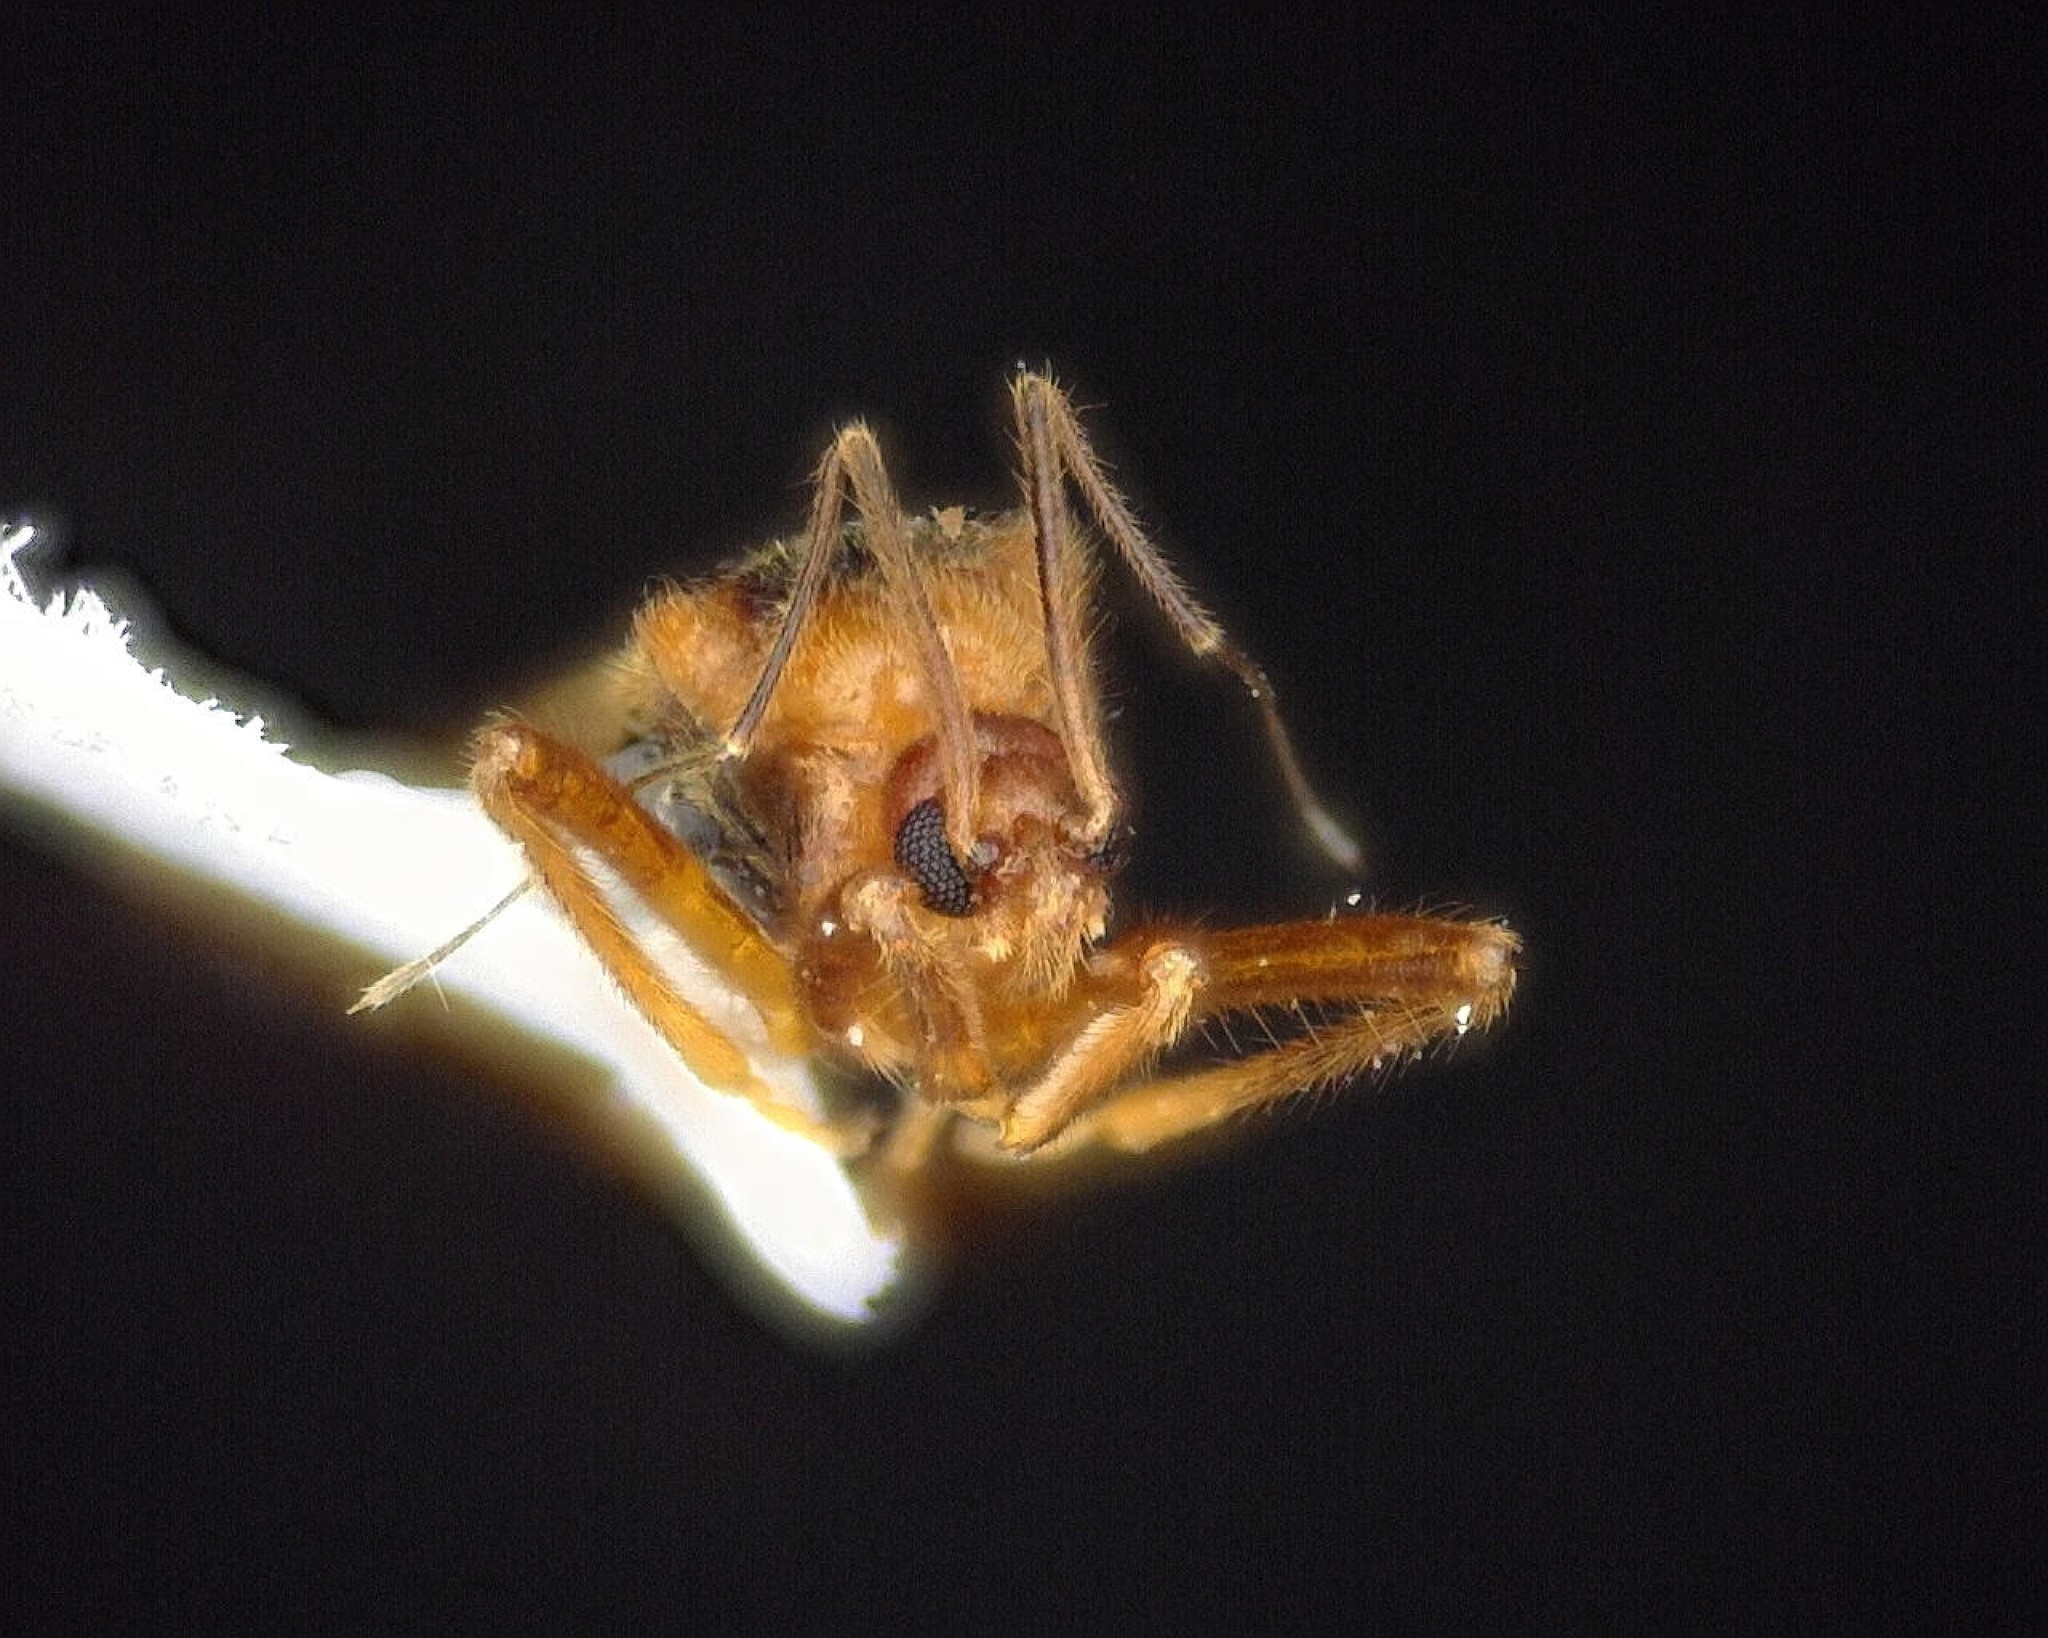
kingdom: Animalia
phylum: Arthropoda
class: Insecta
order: Hemiptera
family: Reduviidae
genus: Oncerotrachelus
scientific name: Oncerotrachelus acuminatus
